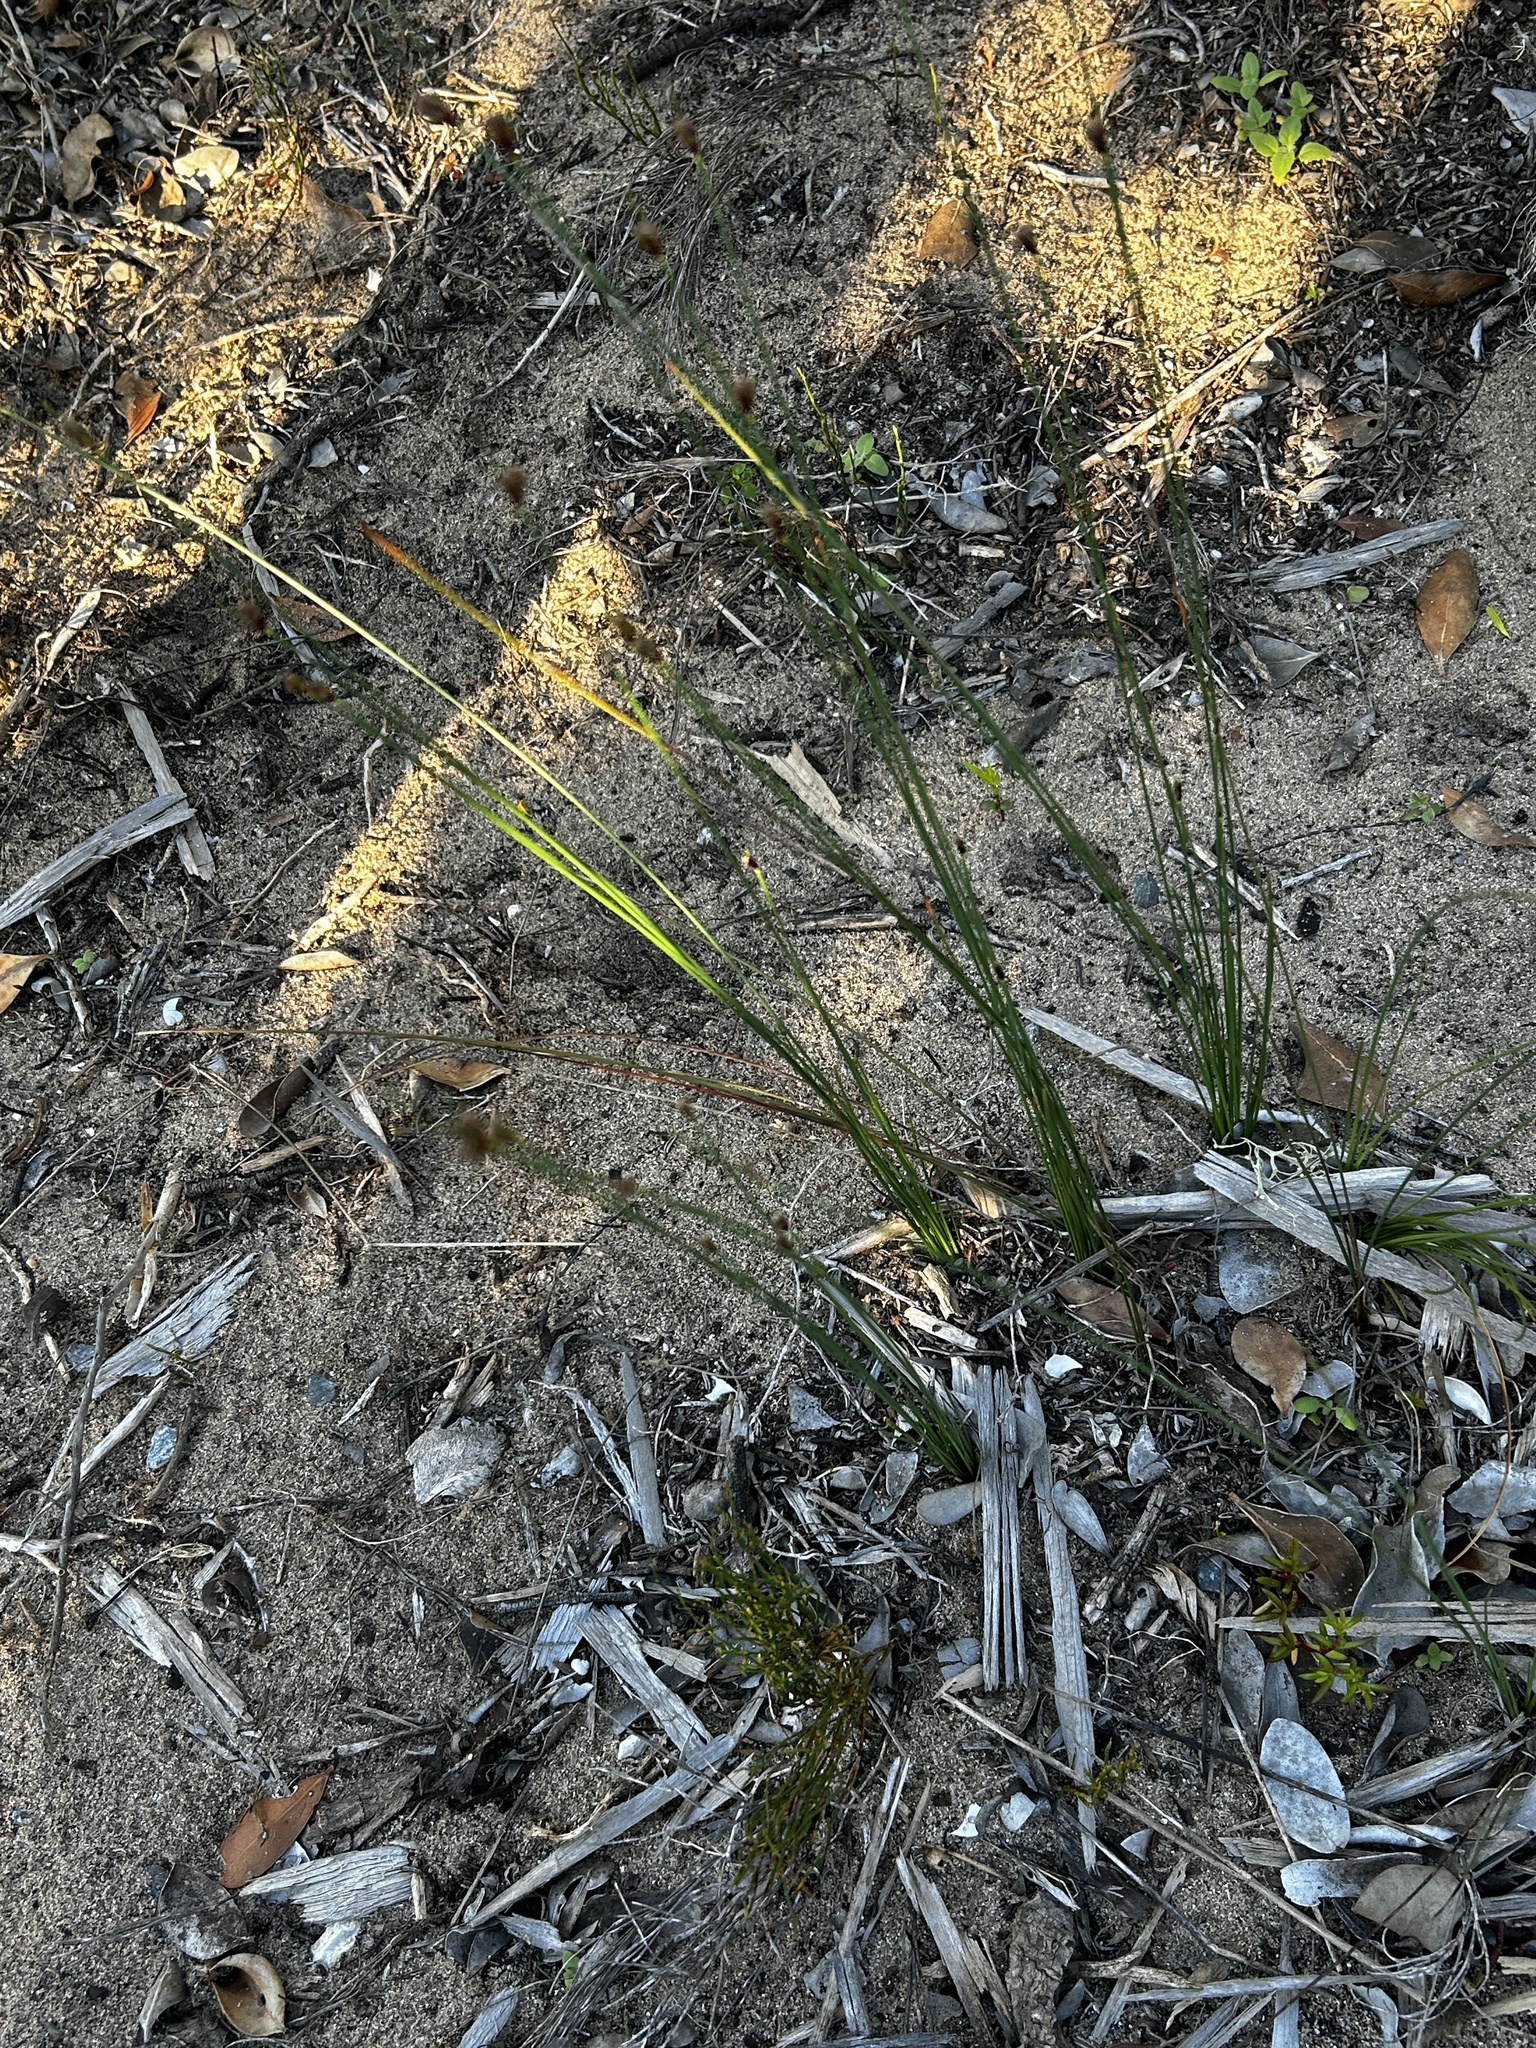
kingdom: Plantae
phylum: Tracheophyta
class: Liliopsida
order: Poales
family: Cyperaceae
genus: Ficinia
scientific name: Ficinia indica
